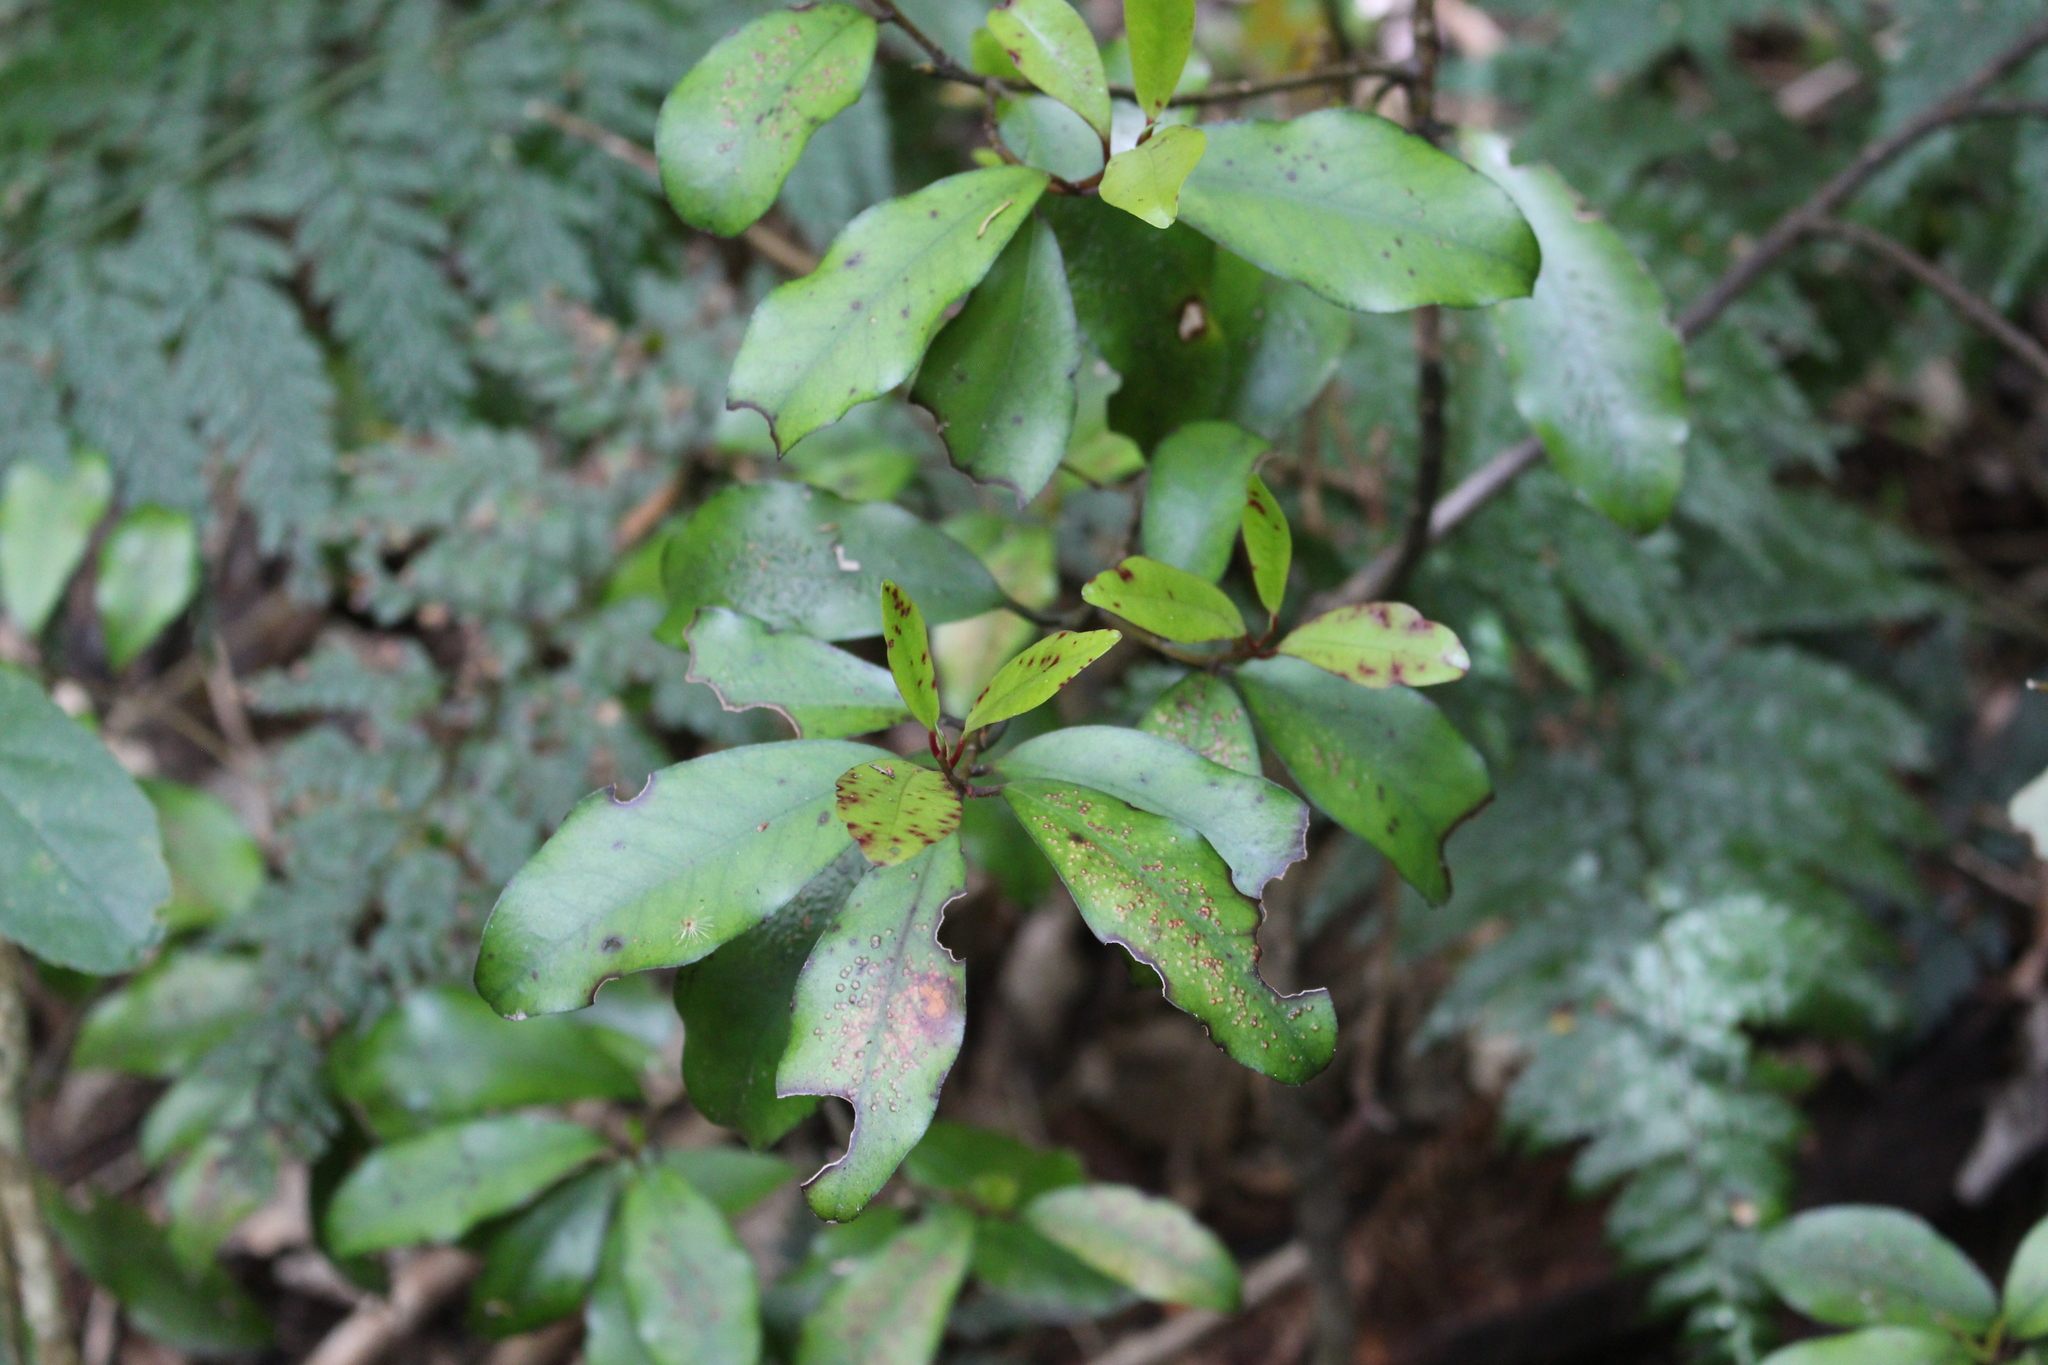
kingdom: Plantae
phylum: Tracheophyta
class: Magnoliopsida
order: Canellales
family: Winteraceae
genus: Pseudowintera
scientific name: Pseudowintera colorata
